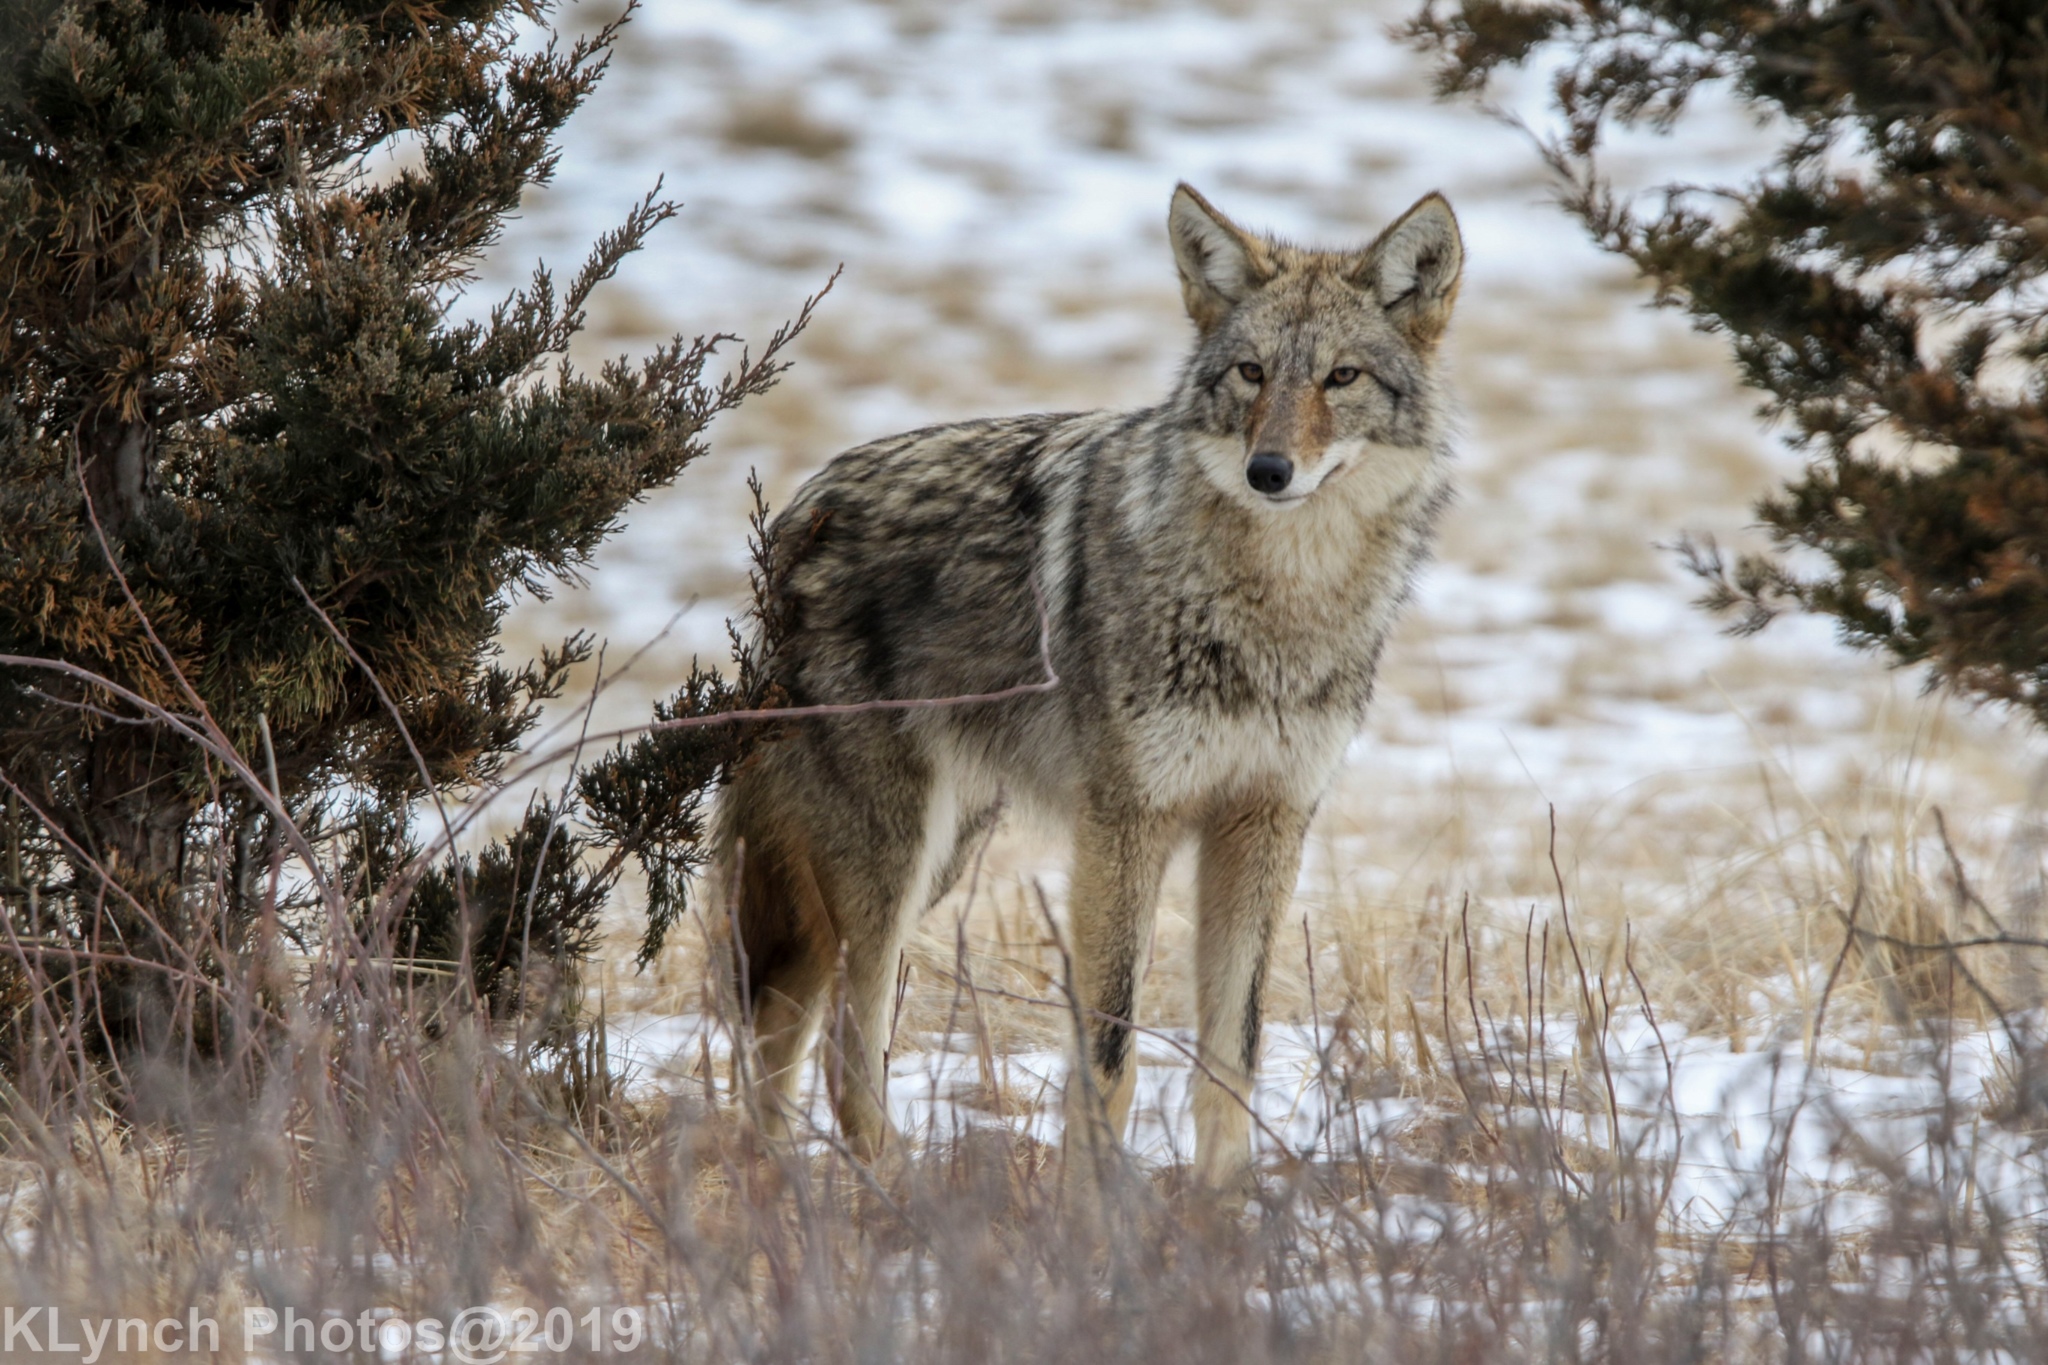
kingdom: Animalia
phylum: Chordata
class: Mammalia
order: Carnivora
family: Canidae
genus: Canis
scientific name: Canis latrans
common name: Coyote
